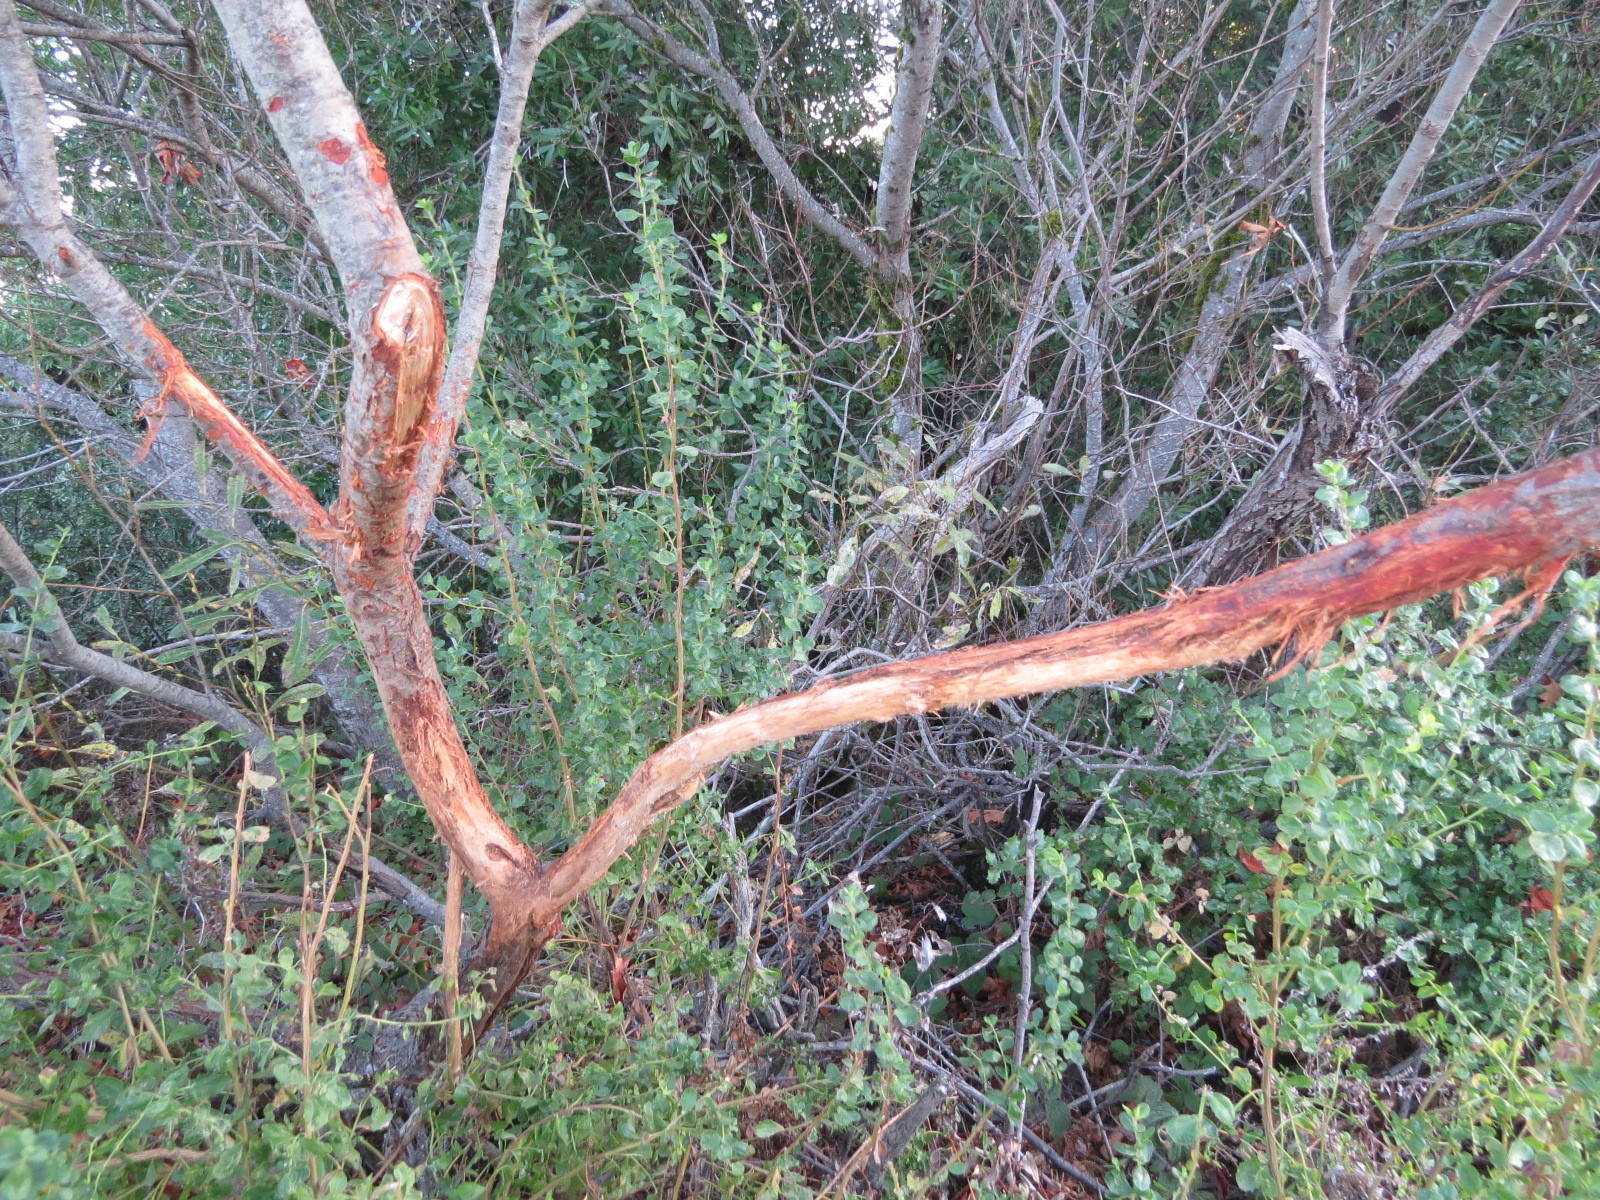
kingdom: Animalia
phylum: Chordata
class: Mammalia
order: Artiodactyla
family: Cervidae
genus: Odocoileus
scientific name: Odocoileus hemionus
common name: Mule deer
